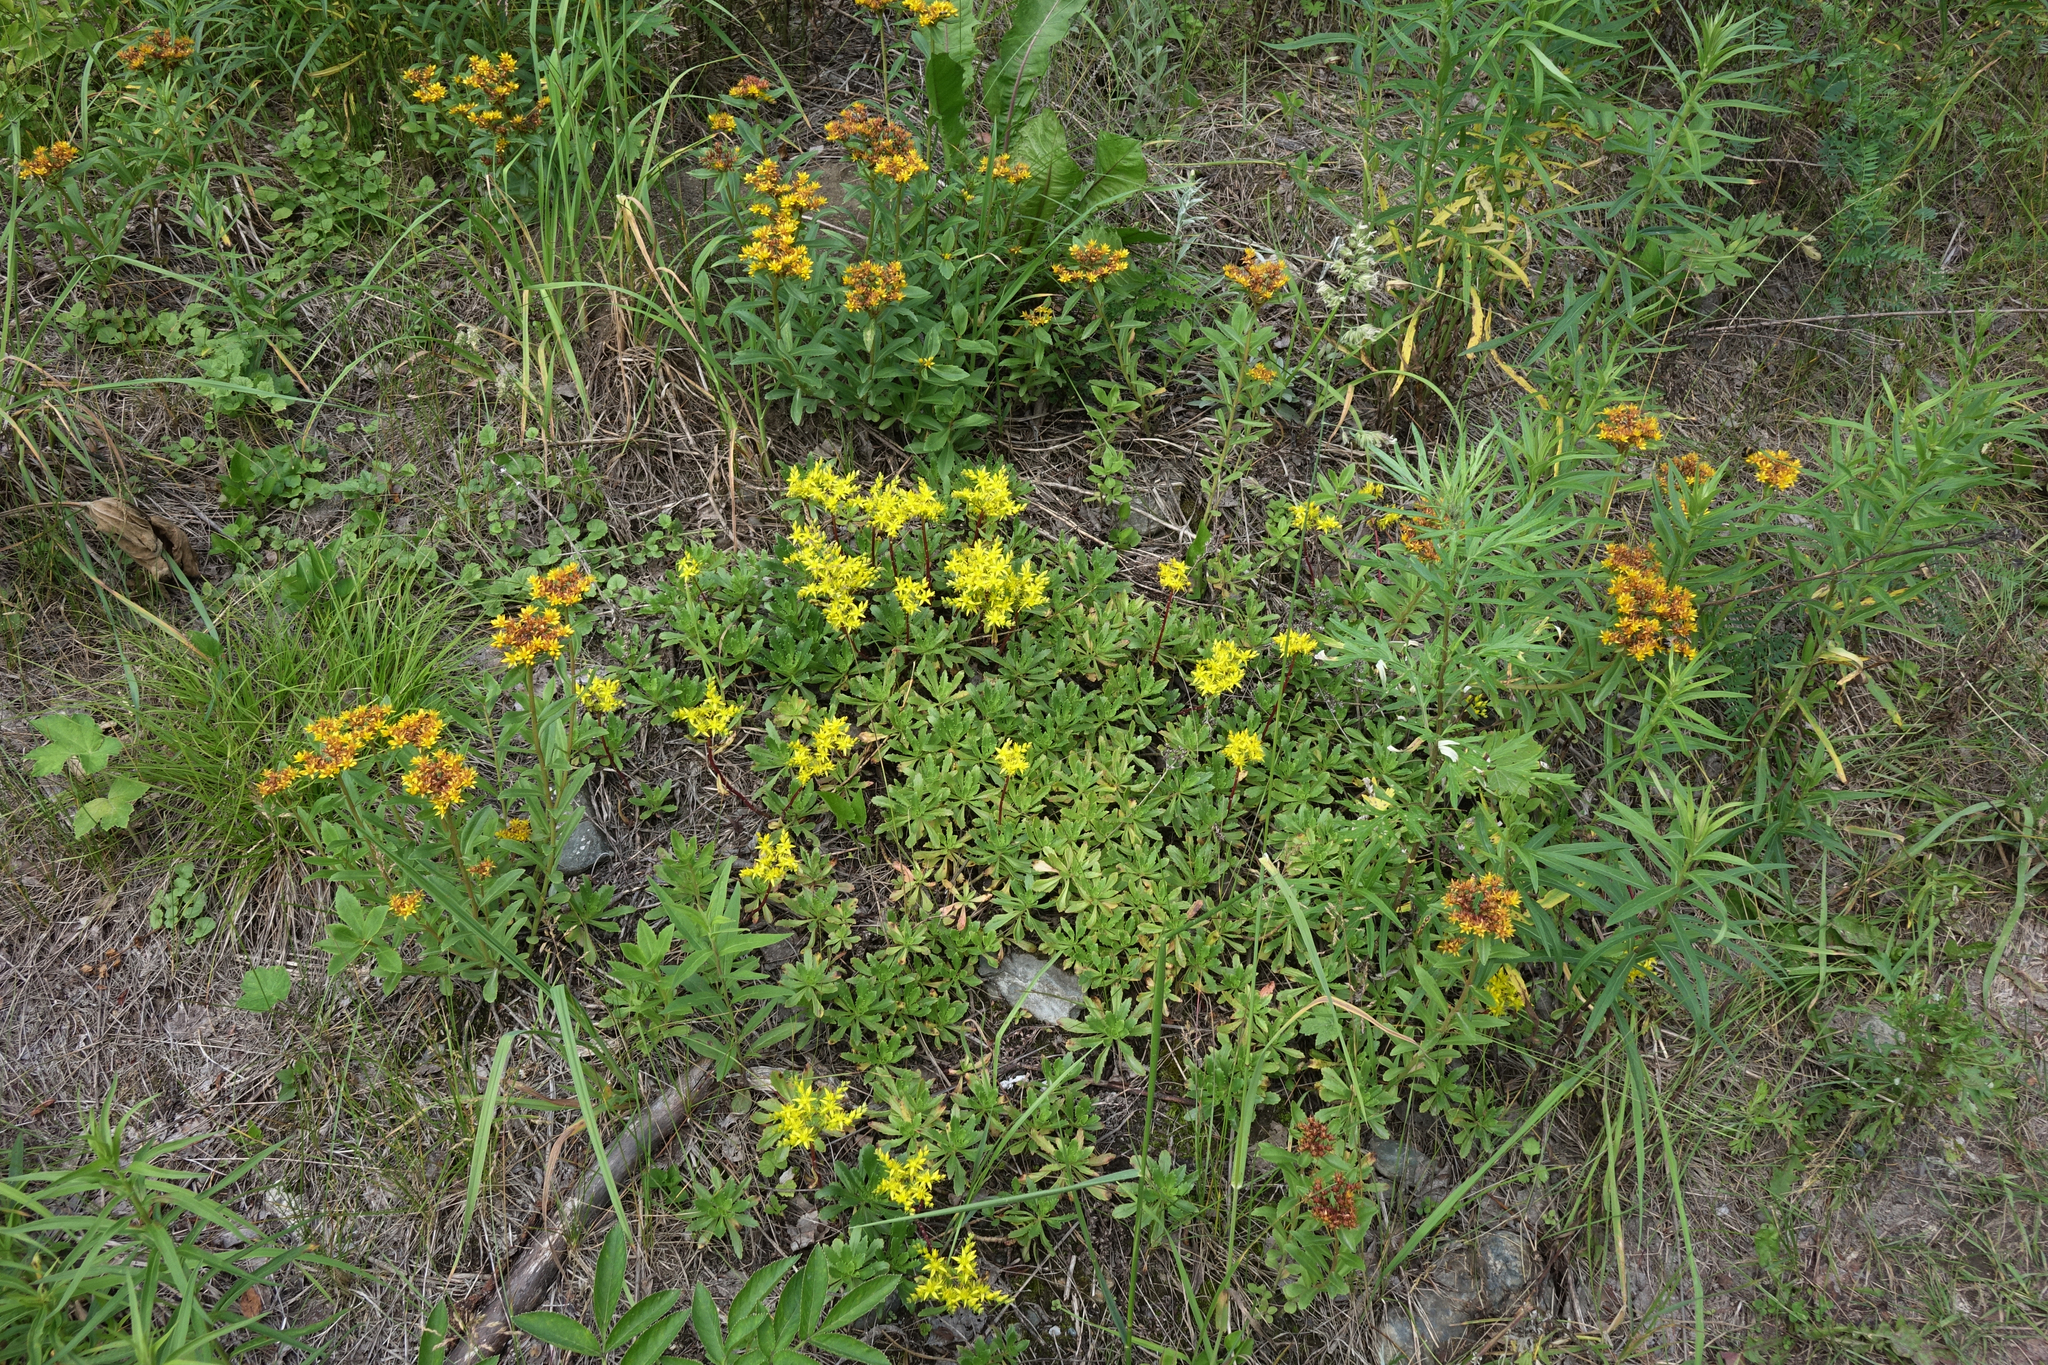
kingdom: Plantae
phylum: Tracheophyta
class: Magnoliopsida
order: Saxifragales
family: Crassulaceae
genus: Phedimus
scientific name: Phedimus aizoon
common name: Orpin aizoon
